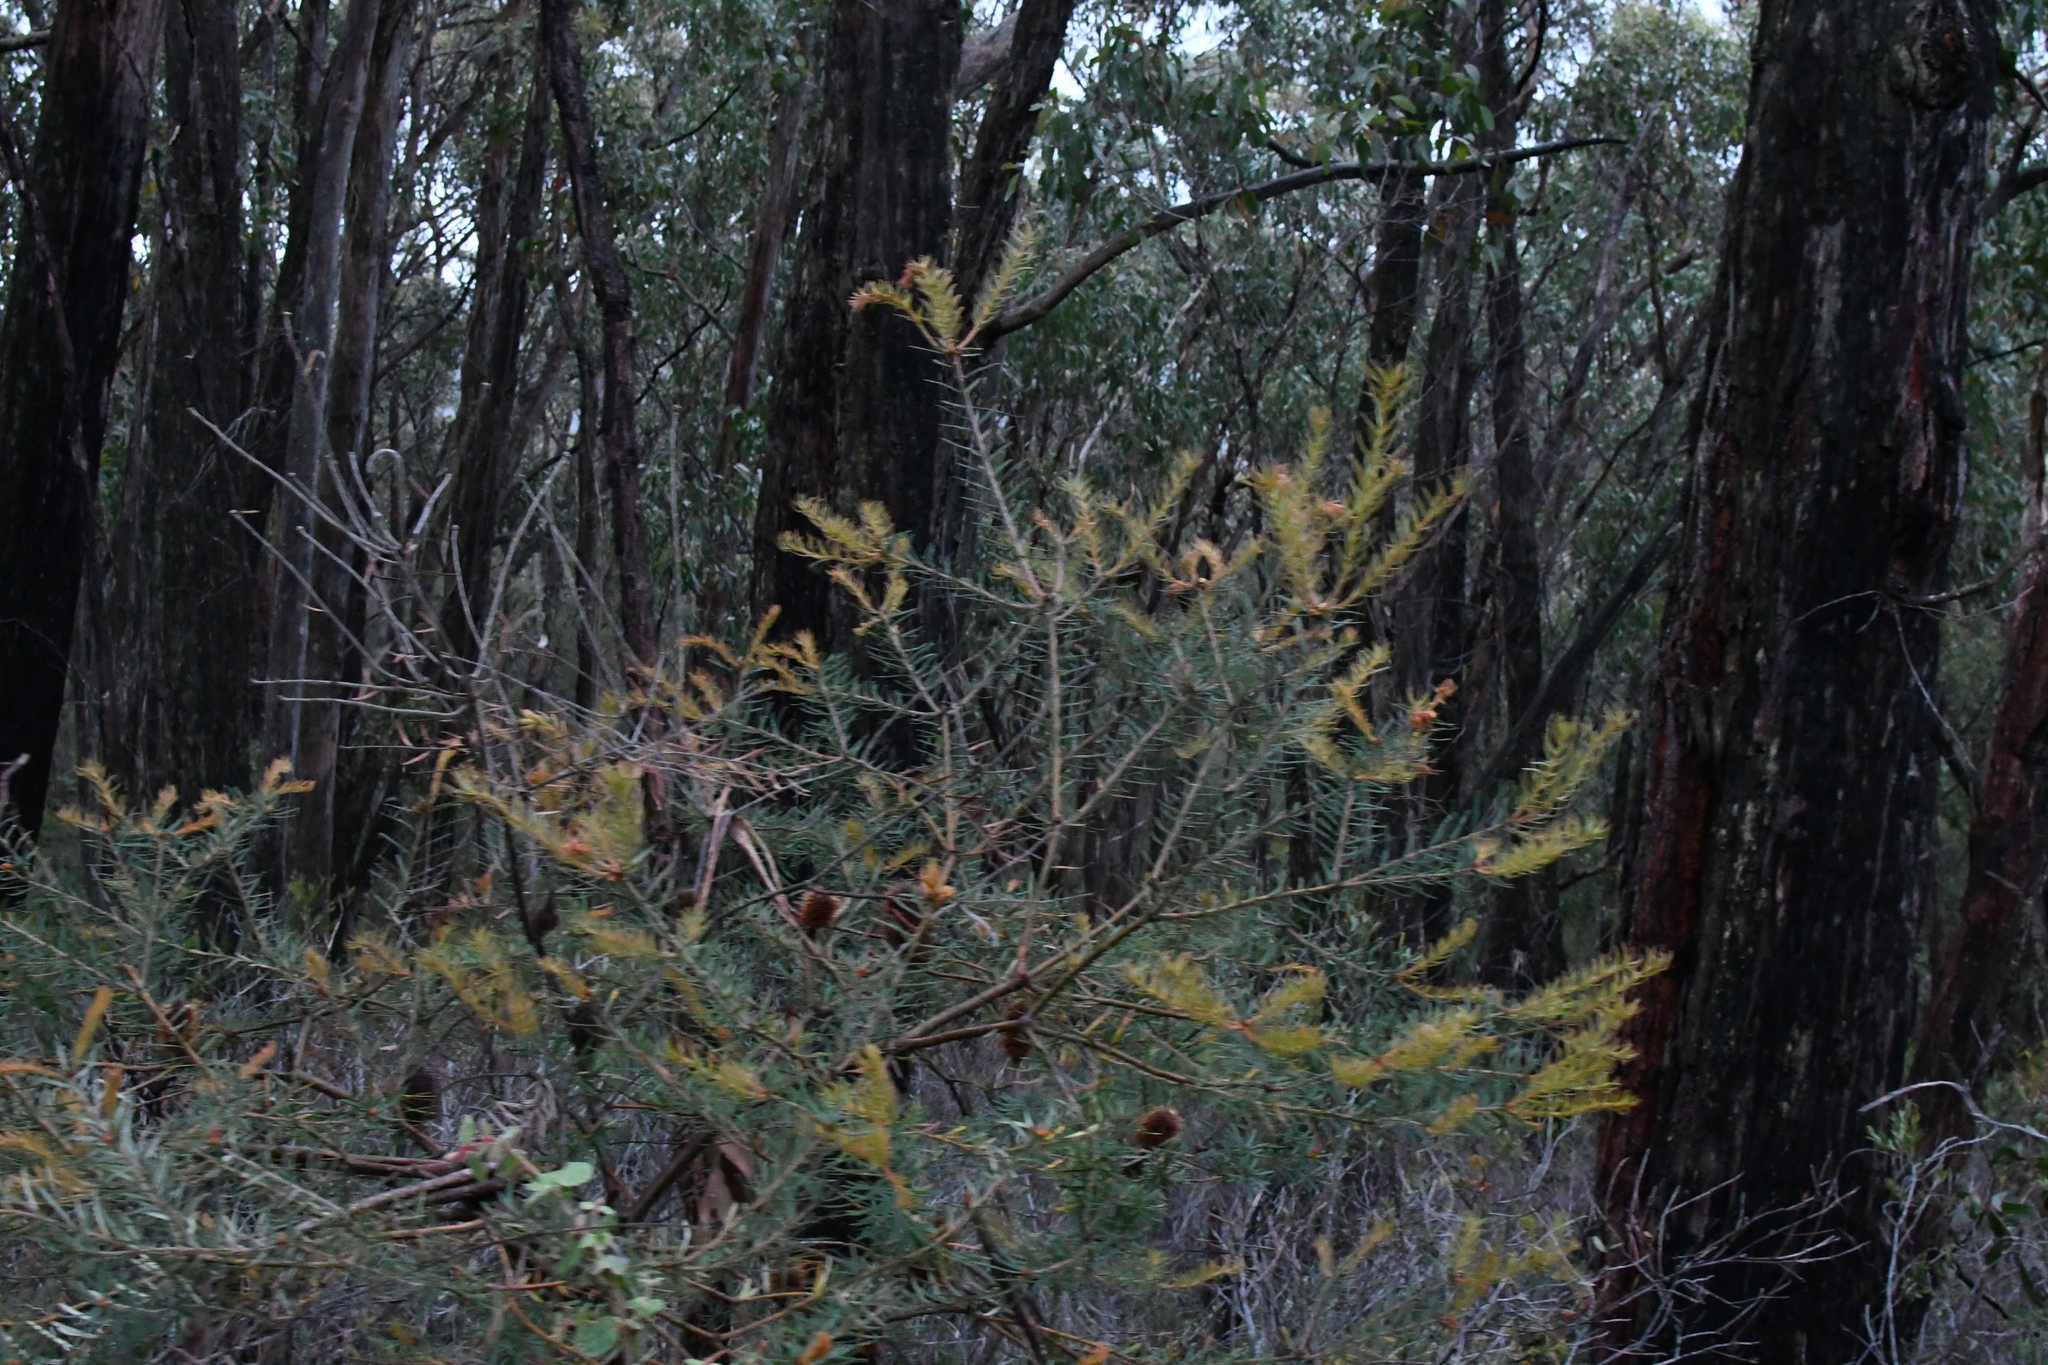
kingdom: Plantae
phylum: Tracheophyta
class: Magnoliopsida
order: Proteales
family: Proteaceae
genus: Banksia
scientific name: Banksia marginata
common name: Silver banksia
